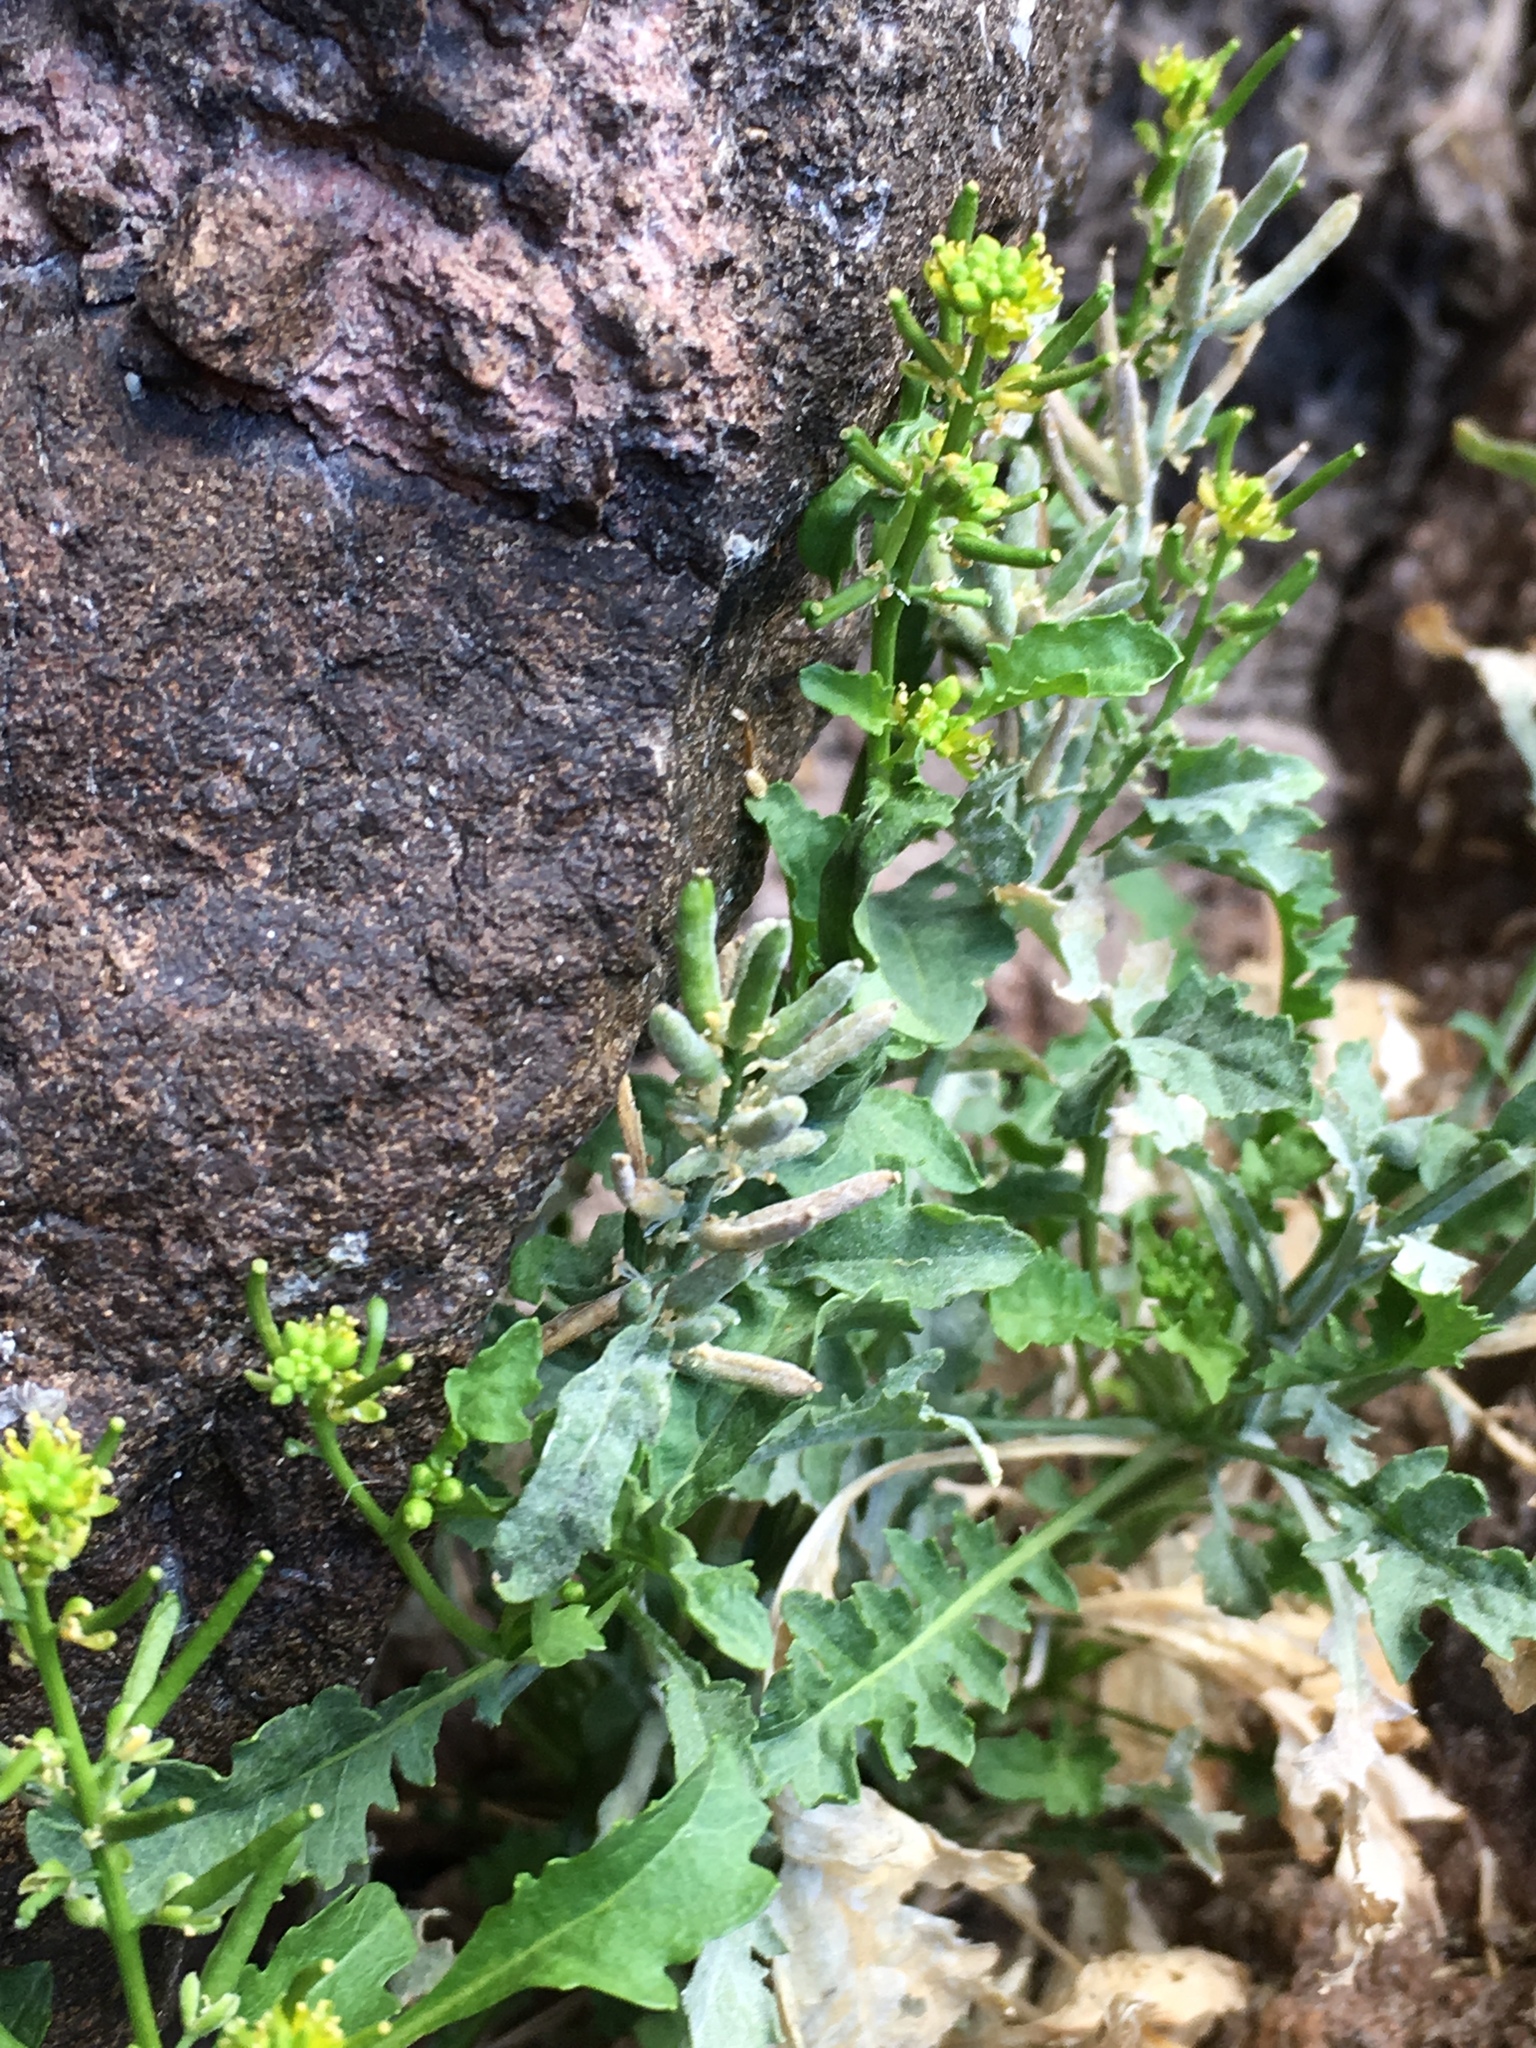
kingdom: Plantae
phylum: Tracheophyta
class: Magnoliopsida
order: Brassicales
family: Brassicaceae
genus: Rorippa
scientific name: Rorippa curvisiliqua
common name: Curve-pod yellow cress
